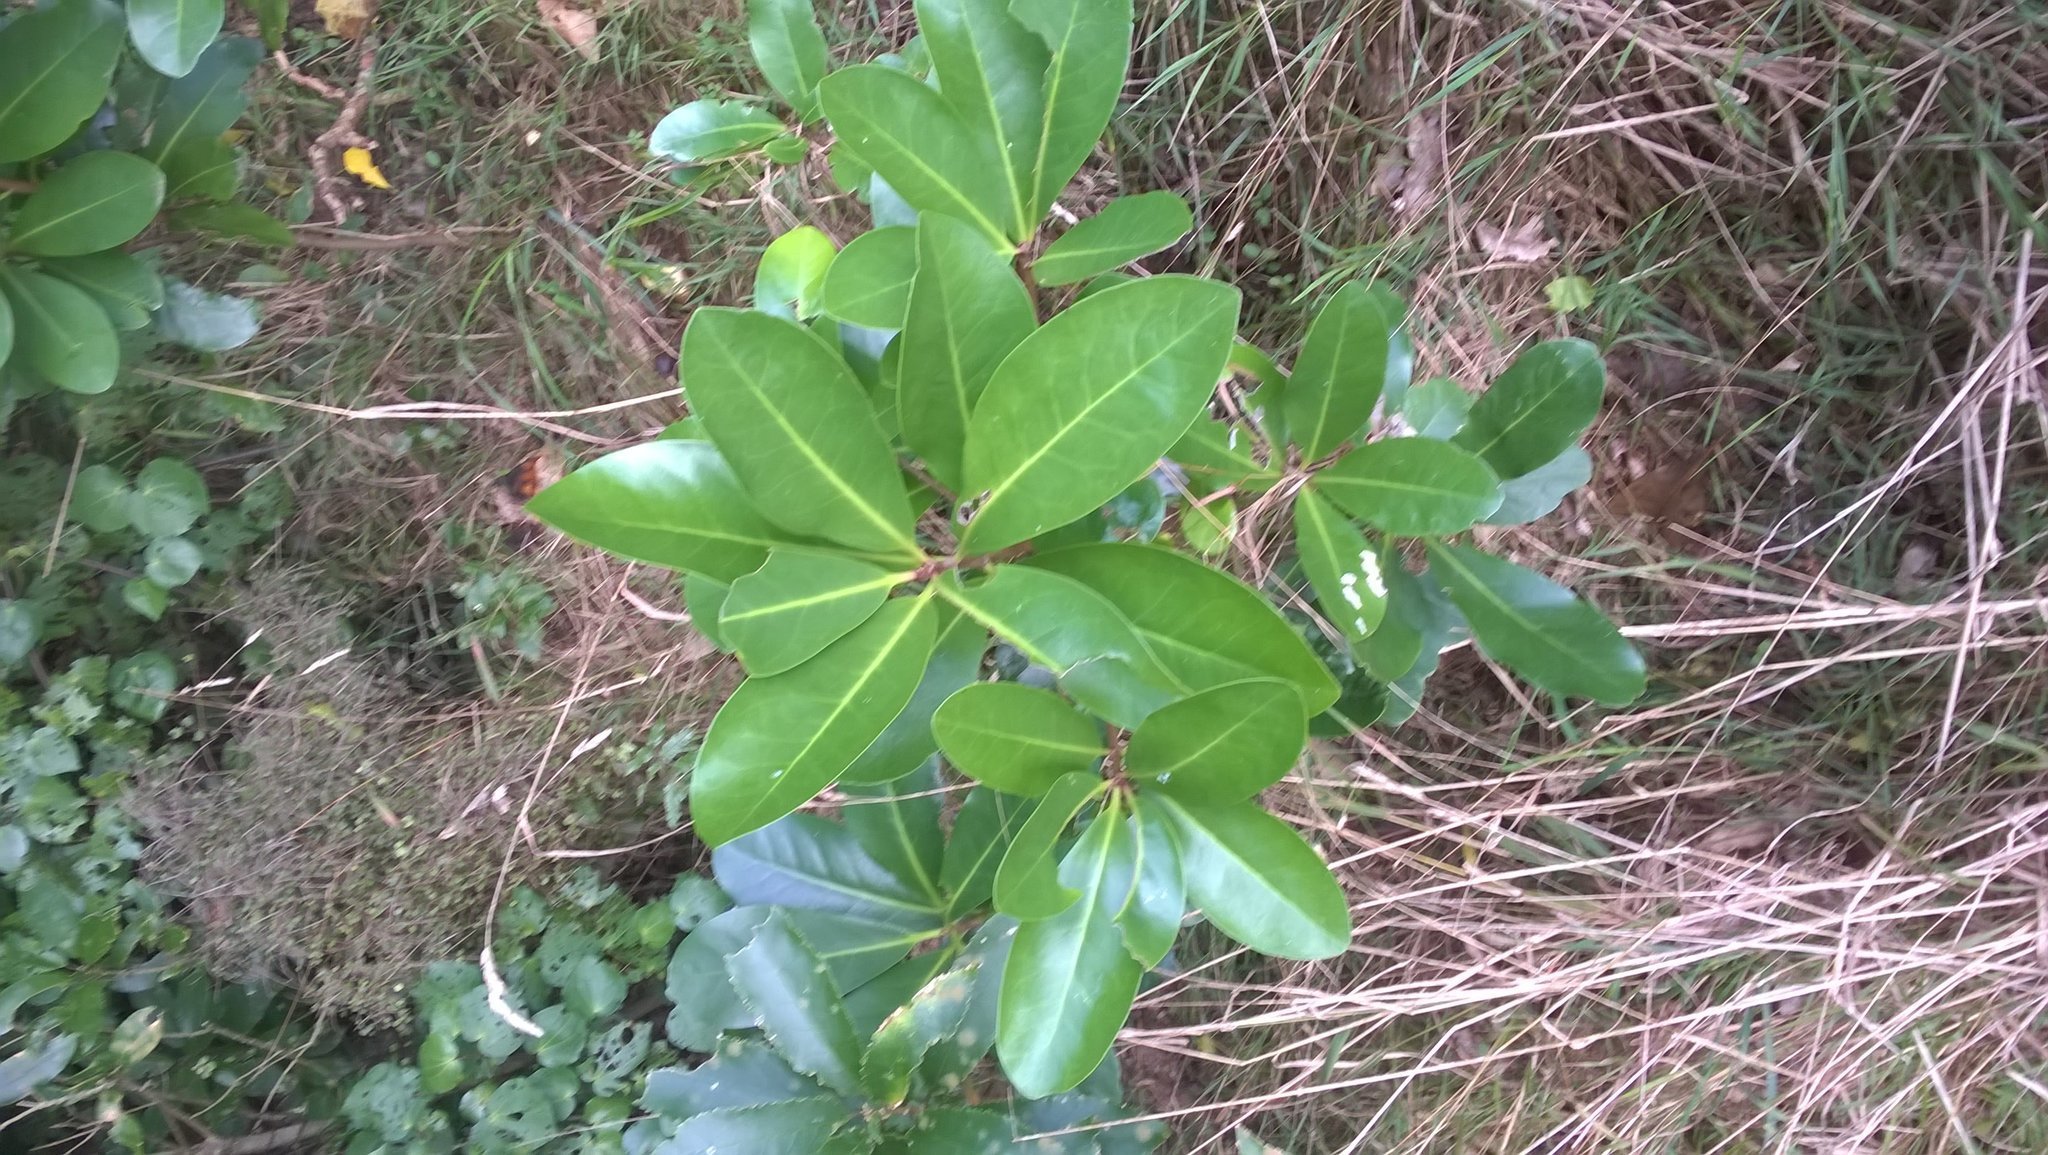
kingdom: Plantae
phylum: Tracheophyta
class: Magnoliopsida
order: Cucurbitales
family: Corynocarpaceae
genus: Corynocarpus
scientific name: Corynocarpus laevigatus
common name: New zealand laurel
